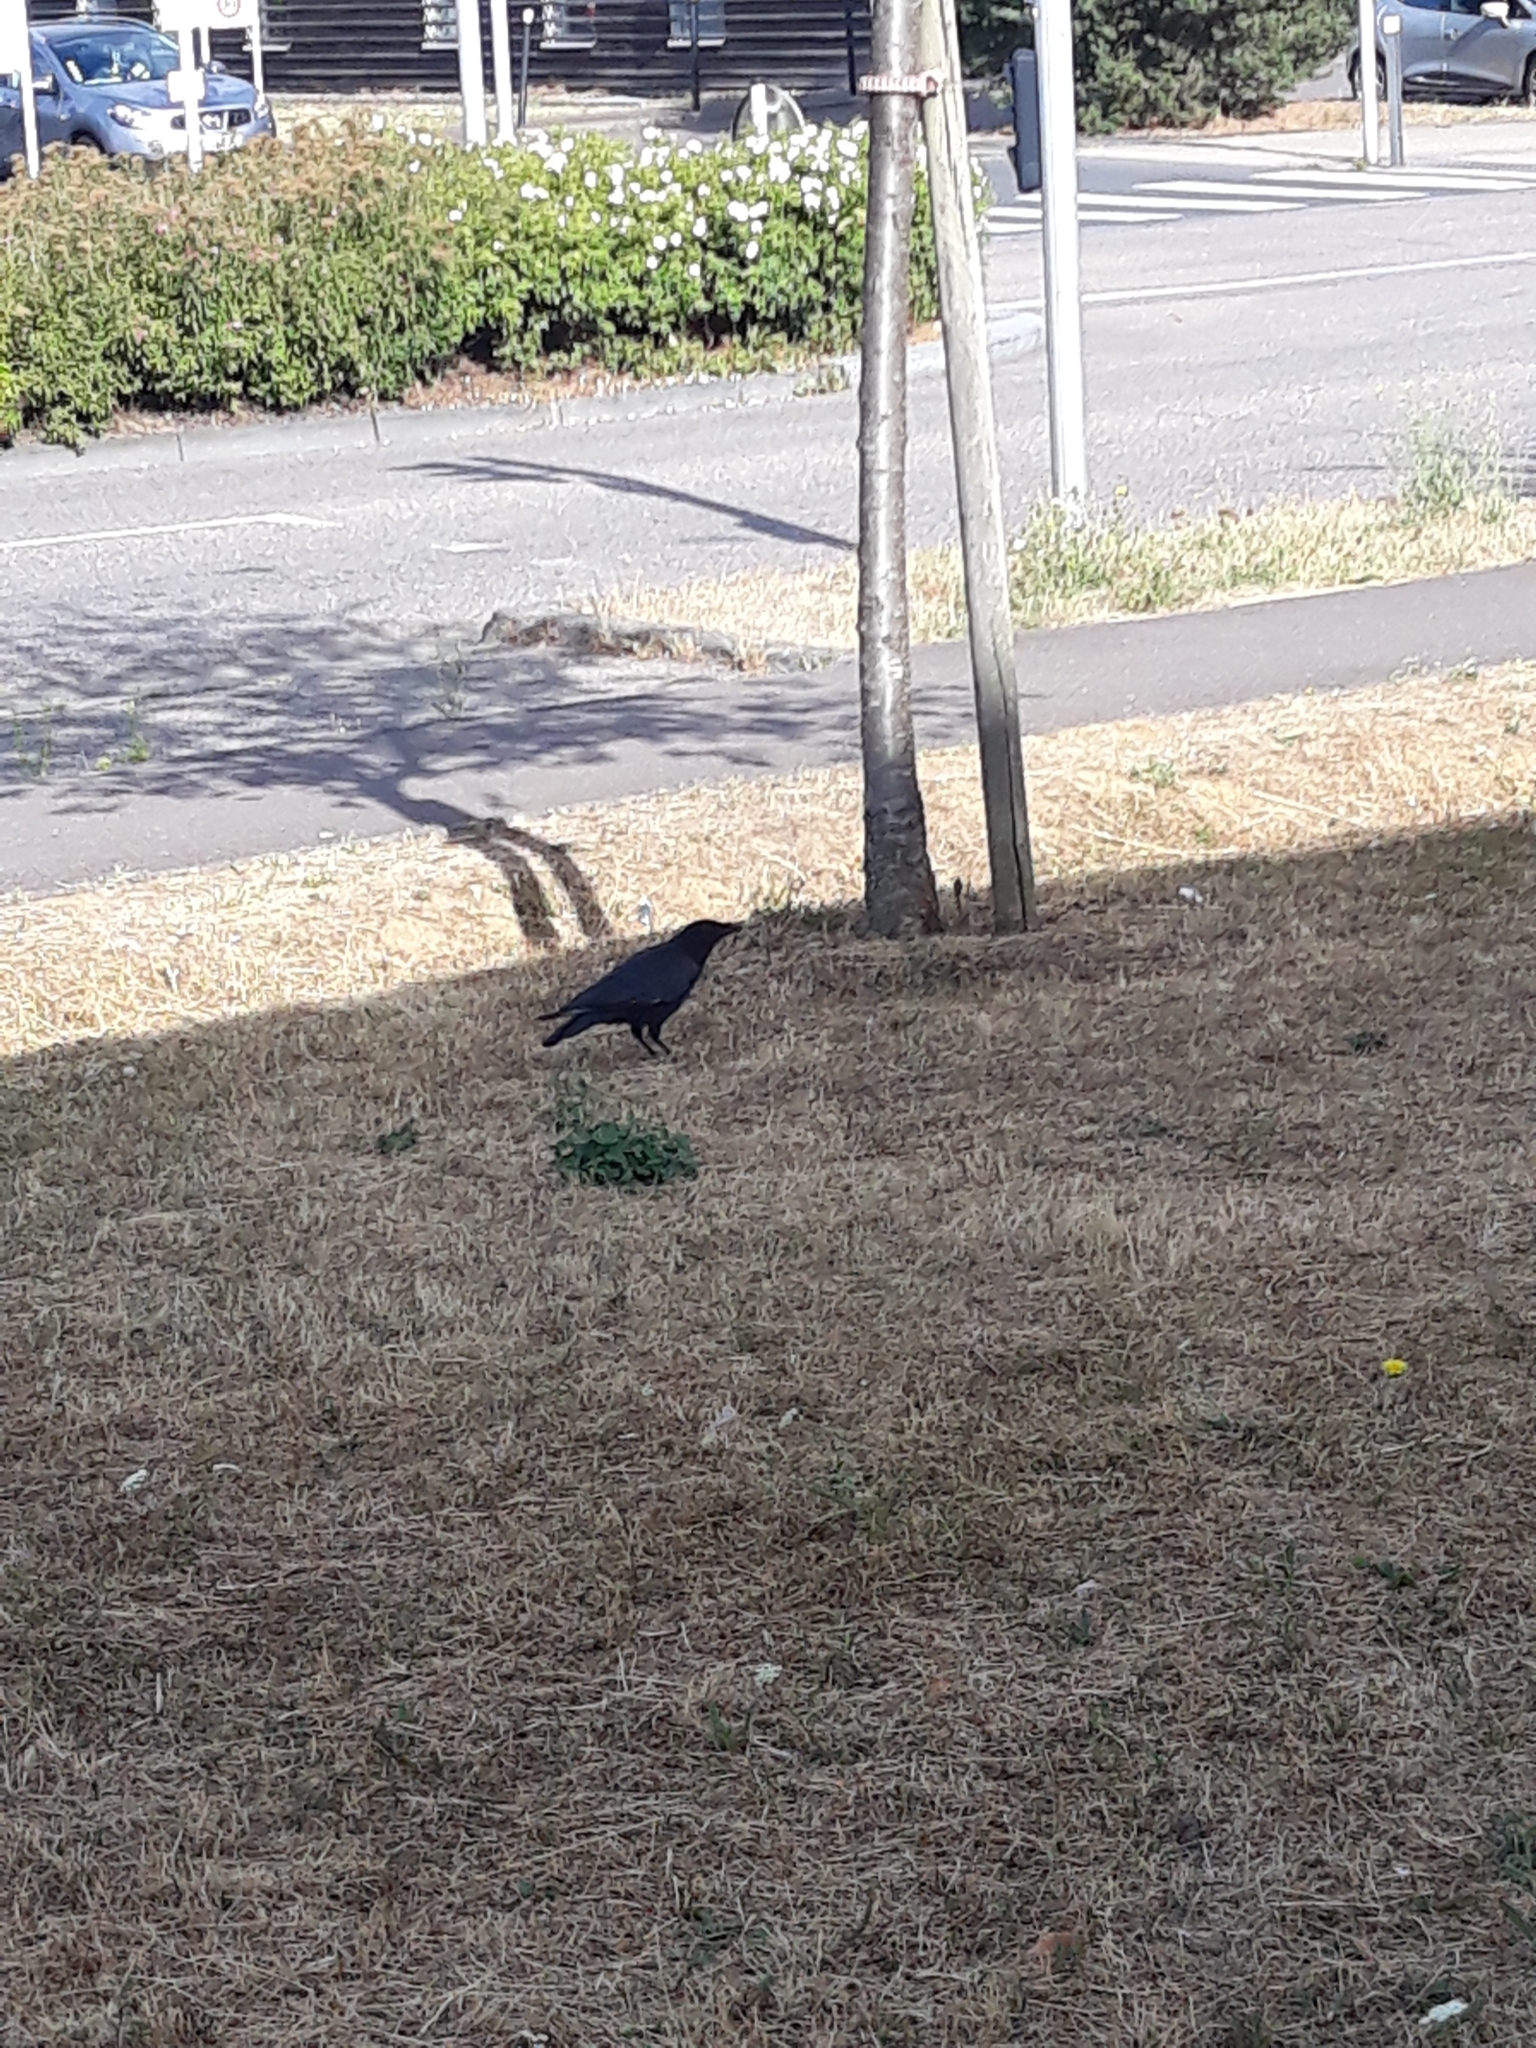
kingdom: Animalia
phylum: Chordata
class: Aves
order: Passeriformes
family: Corvidae
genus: Corvus
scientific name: Corvus corone
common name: Carrion crow
